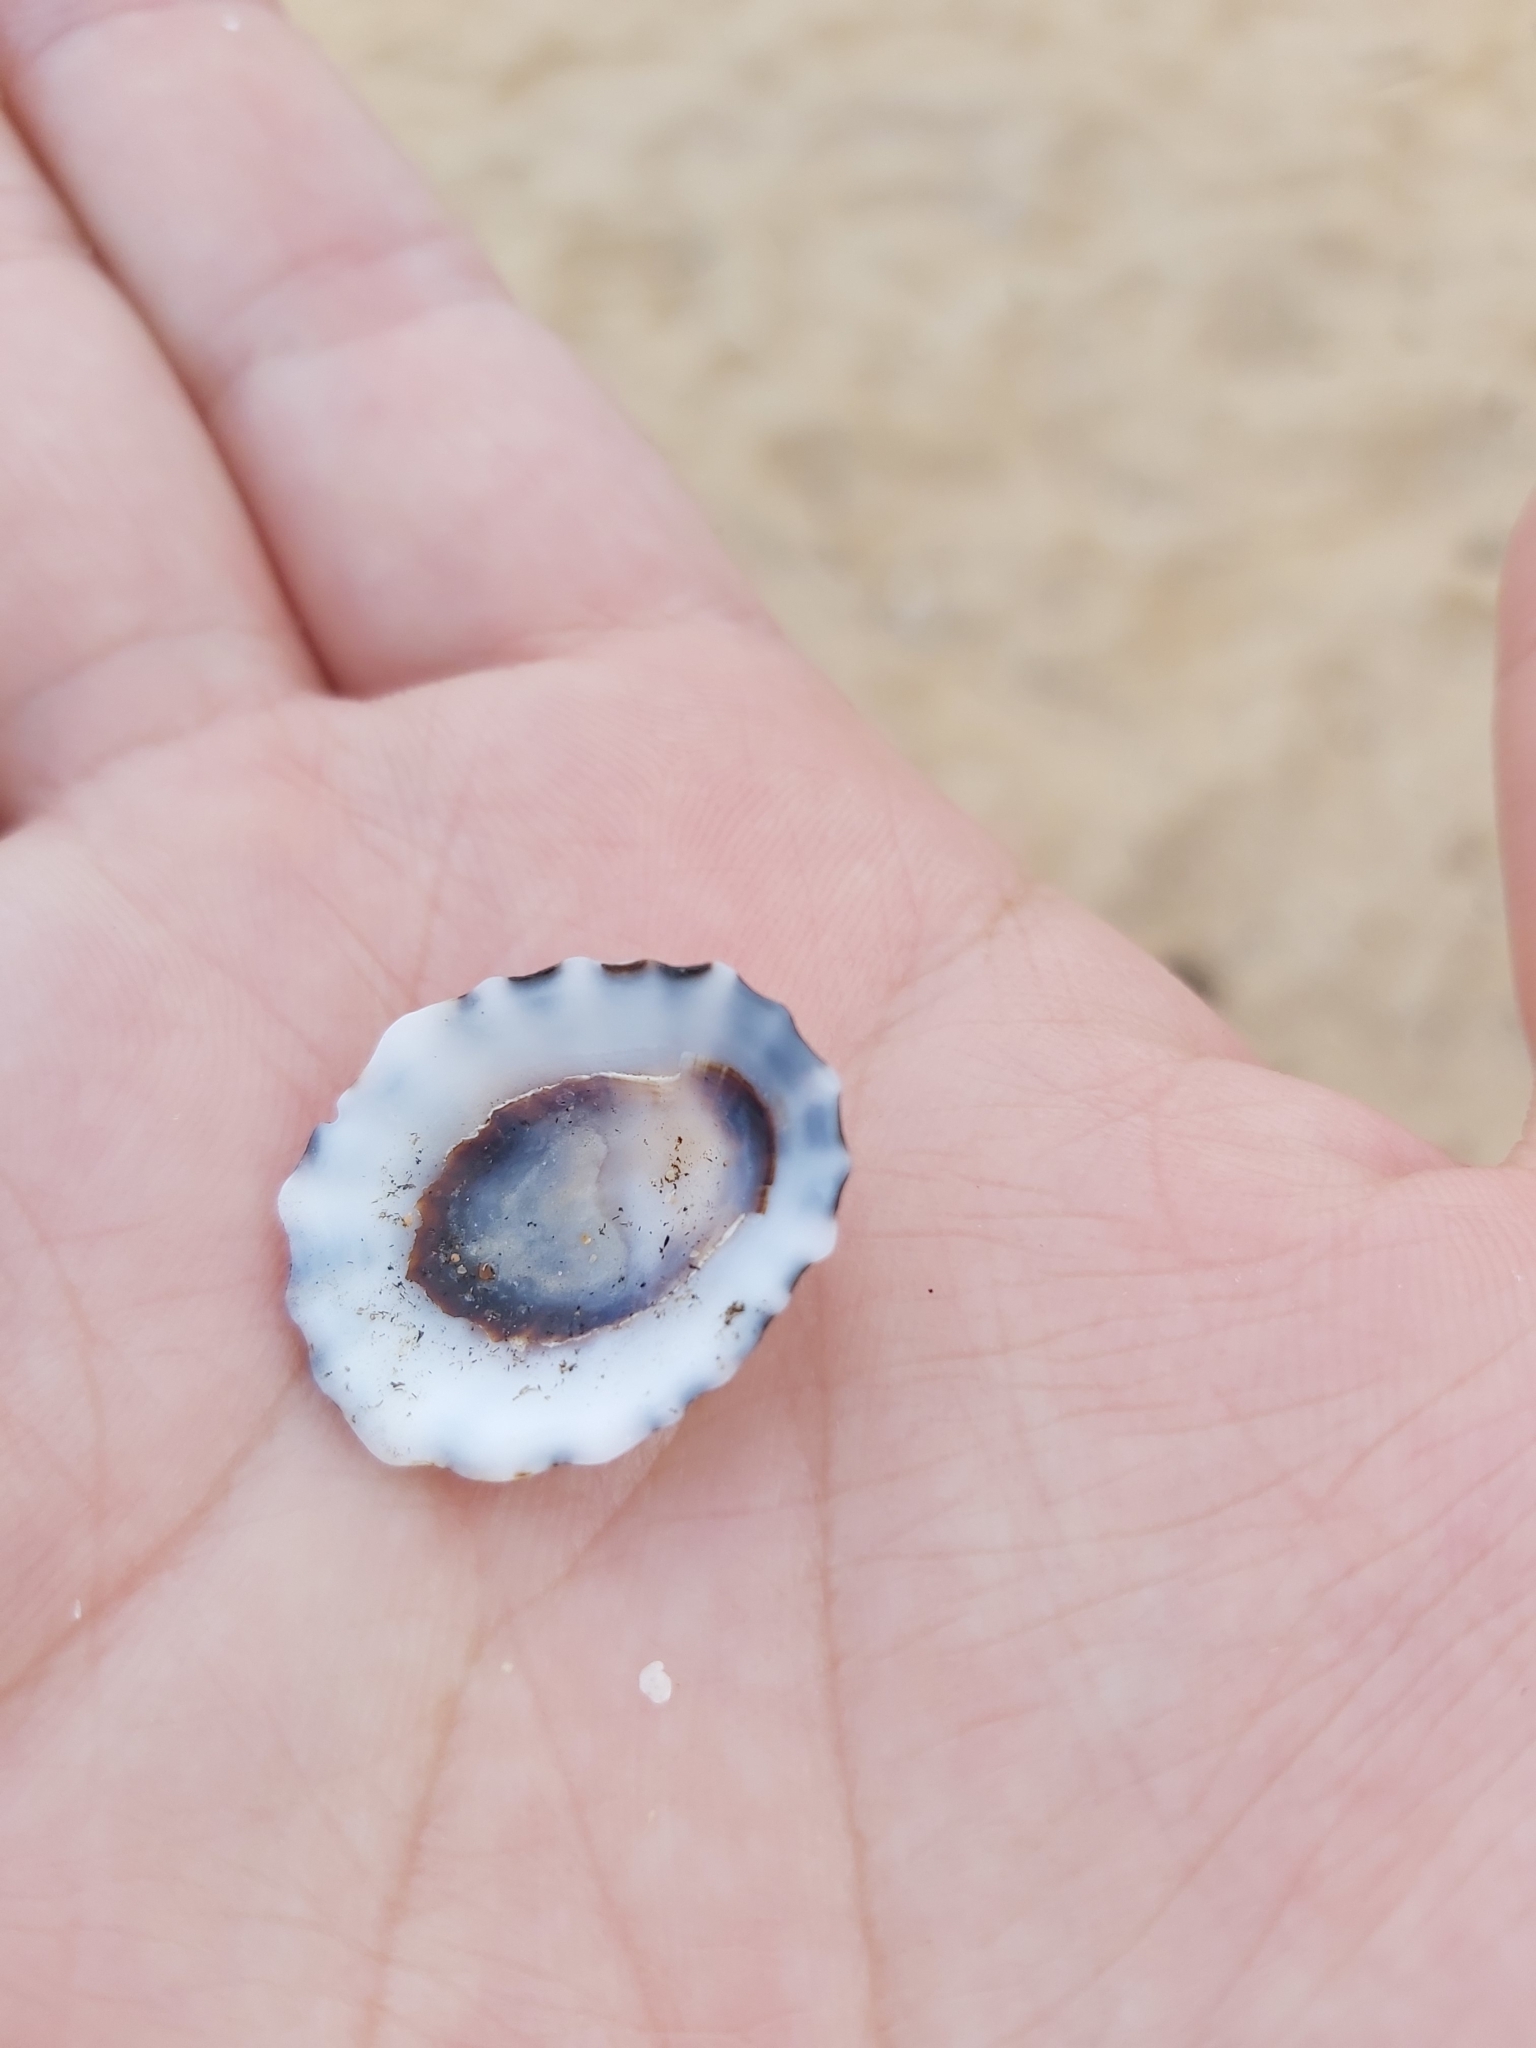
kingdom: Animalia
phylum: Mollusca
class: Gastropoda
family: Lottiidae
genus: Patelloida
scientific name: Patelloida alticostata
